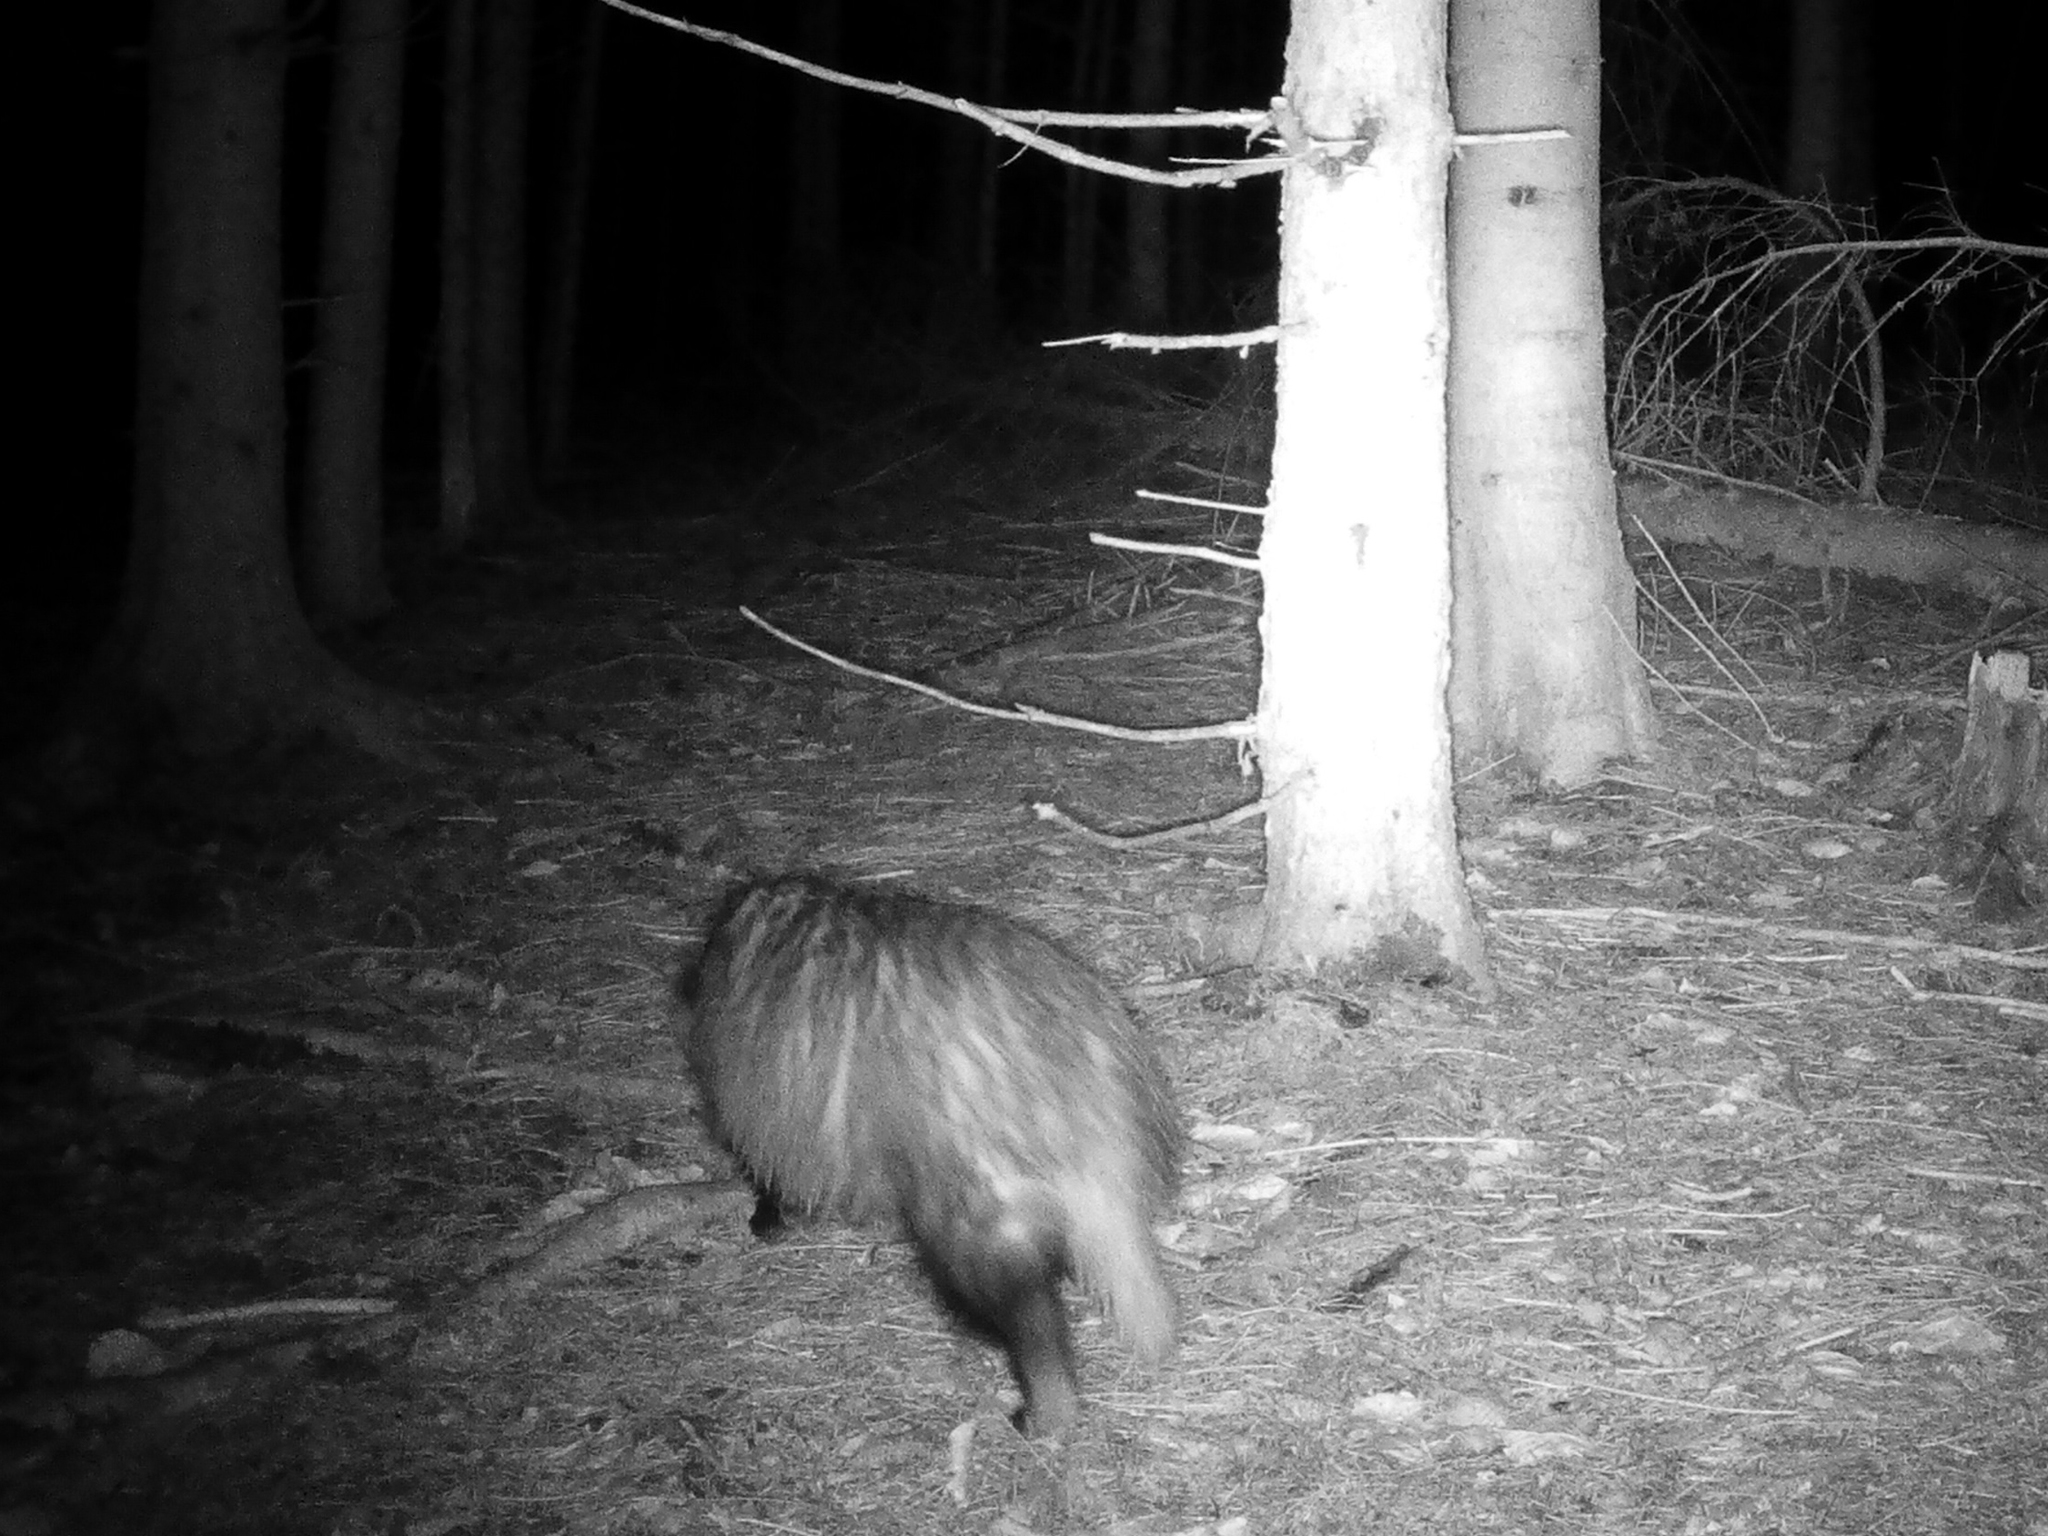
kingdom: Animalia
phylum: Chordata
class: Mammalia
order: Carnivora
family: Mustelidae
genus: Meles
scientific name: Meles meles
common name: Eurasian badger
